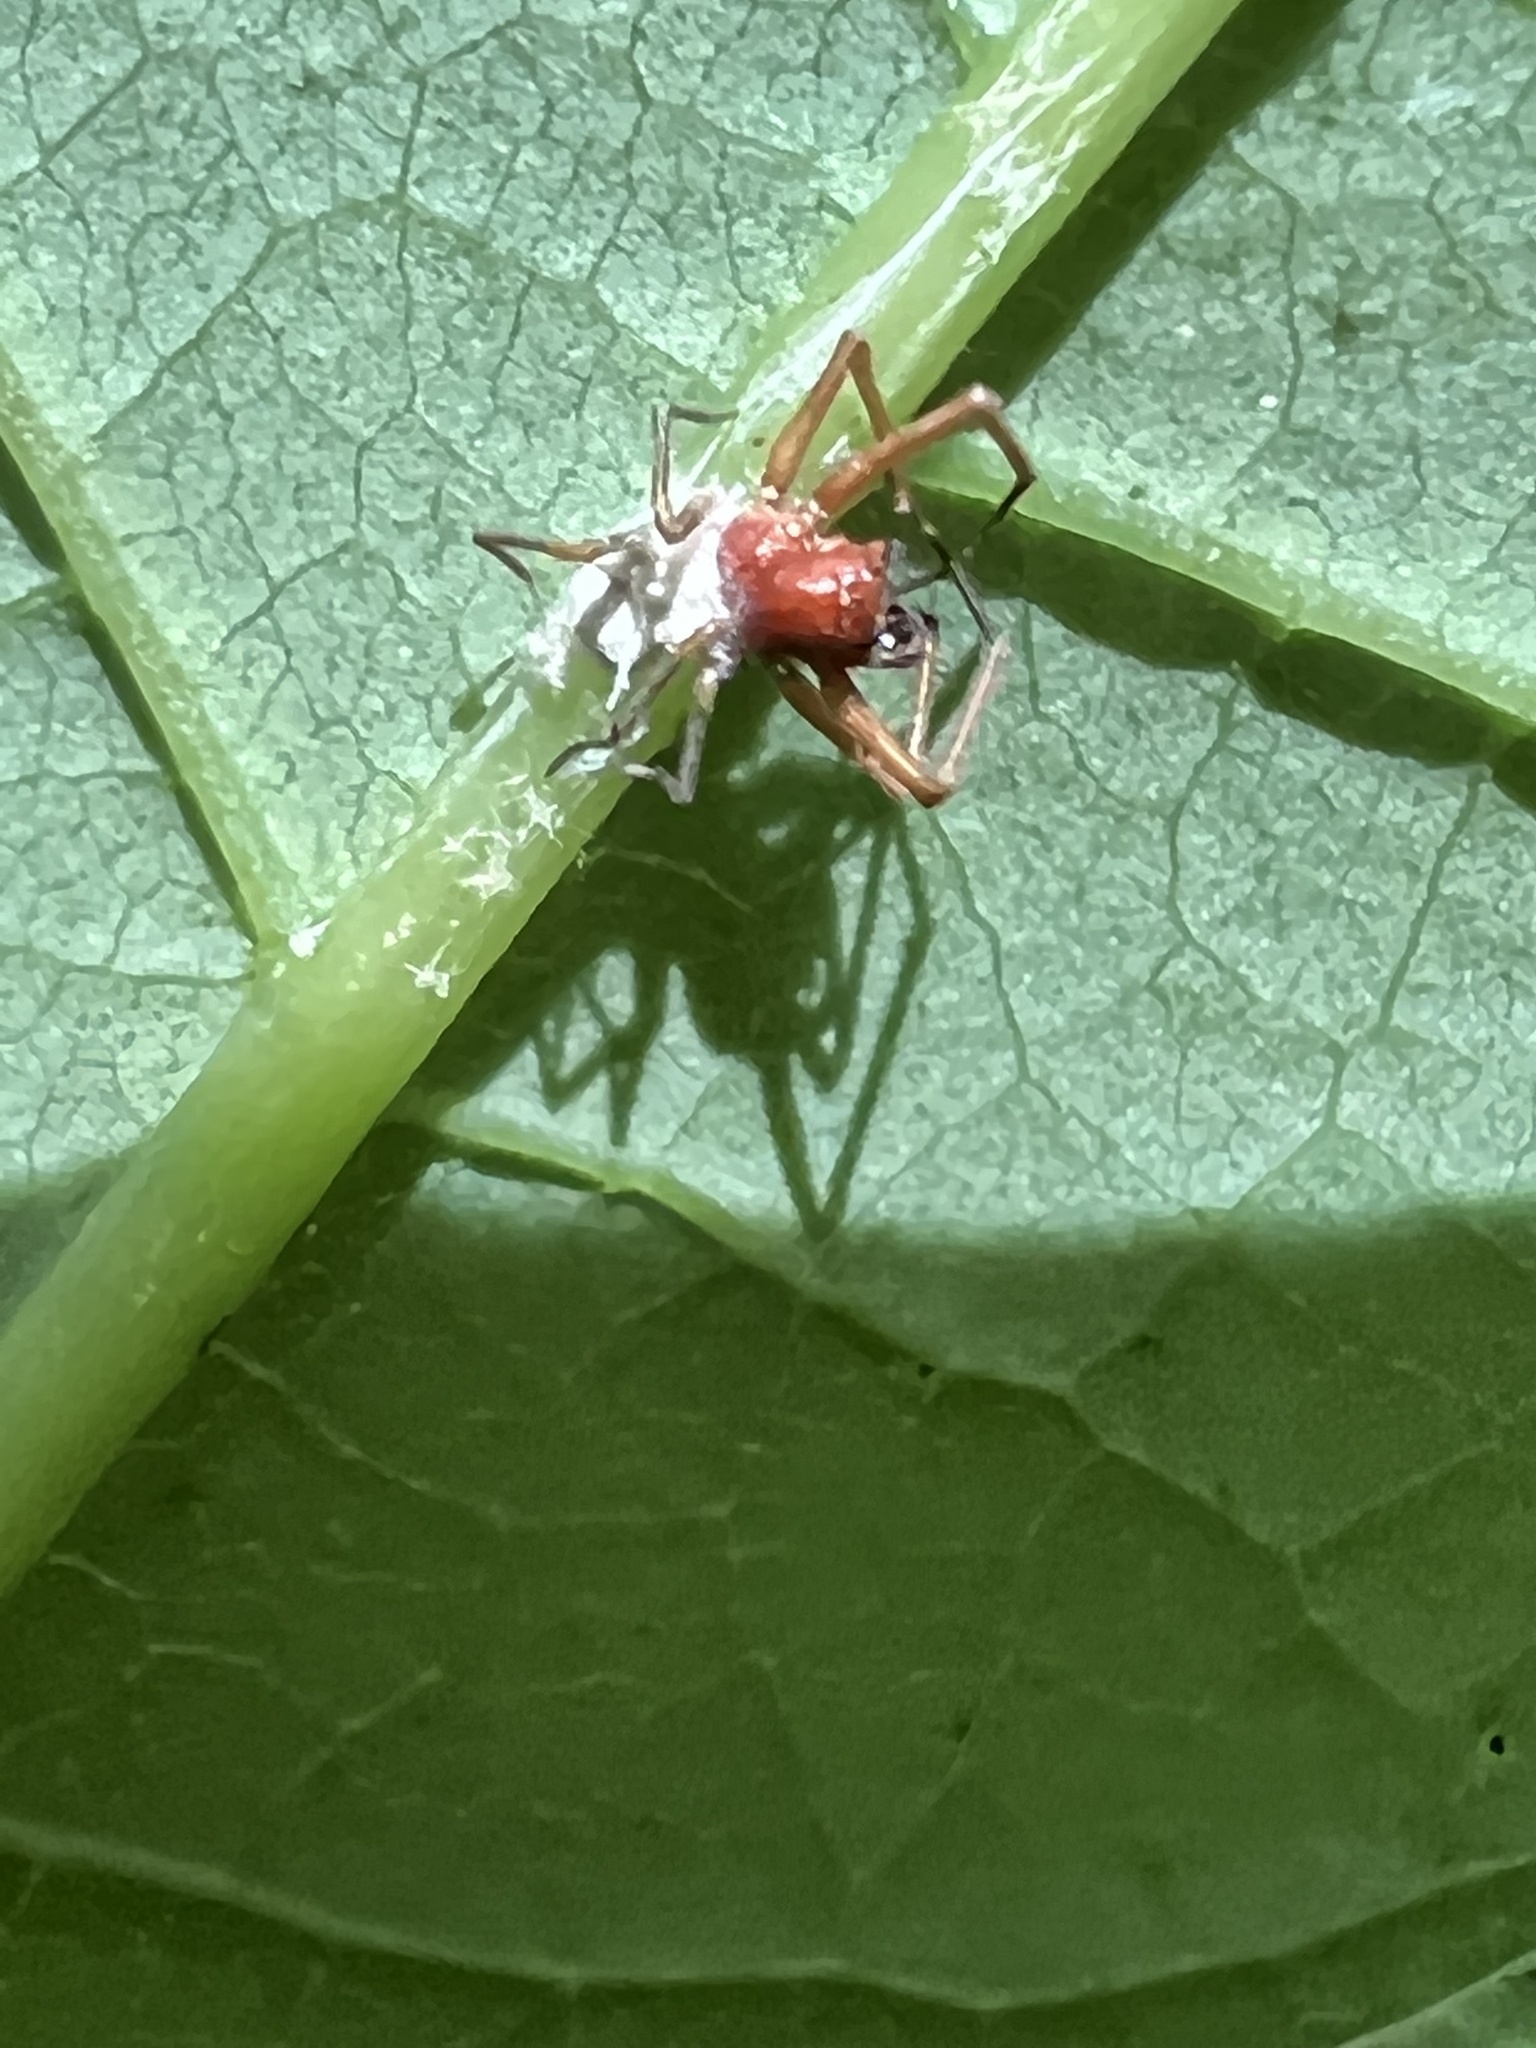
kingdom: Fungi
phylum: Ascomycota
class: Sordariomycetes
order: Hypocreales
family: Cordycipitaceae
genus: Gibellula
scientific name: Gibellula arachnophila
